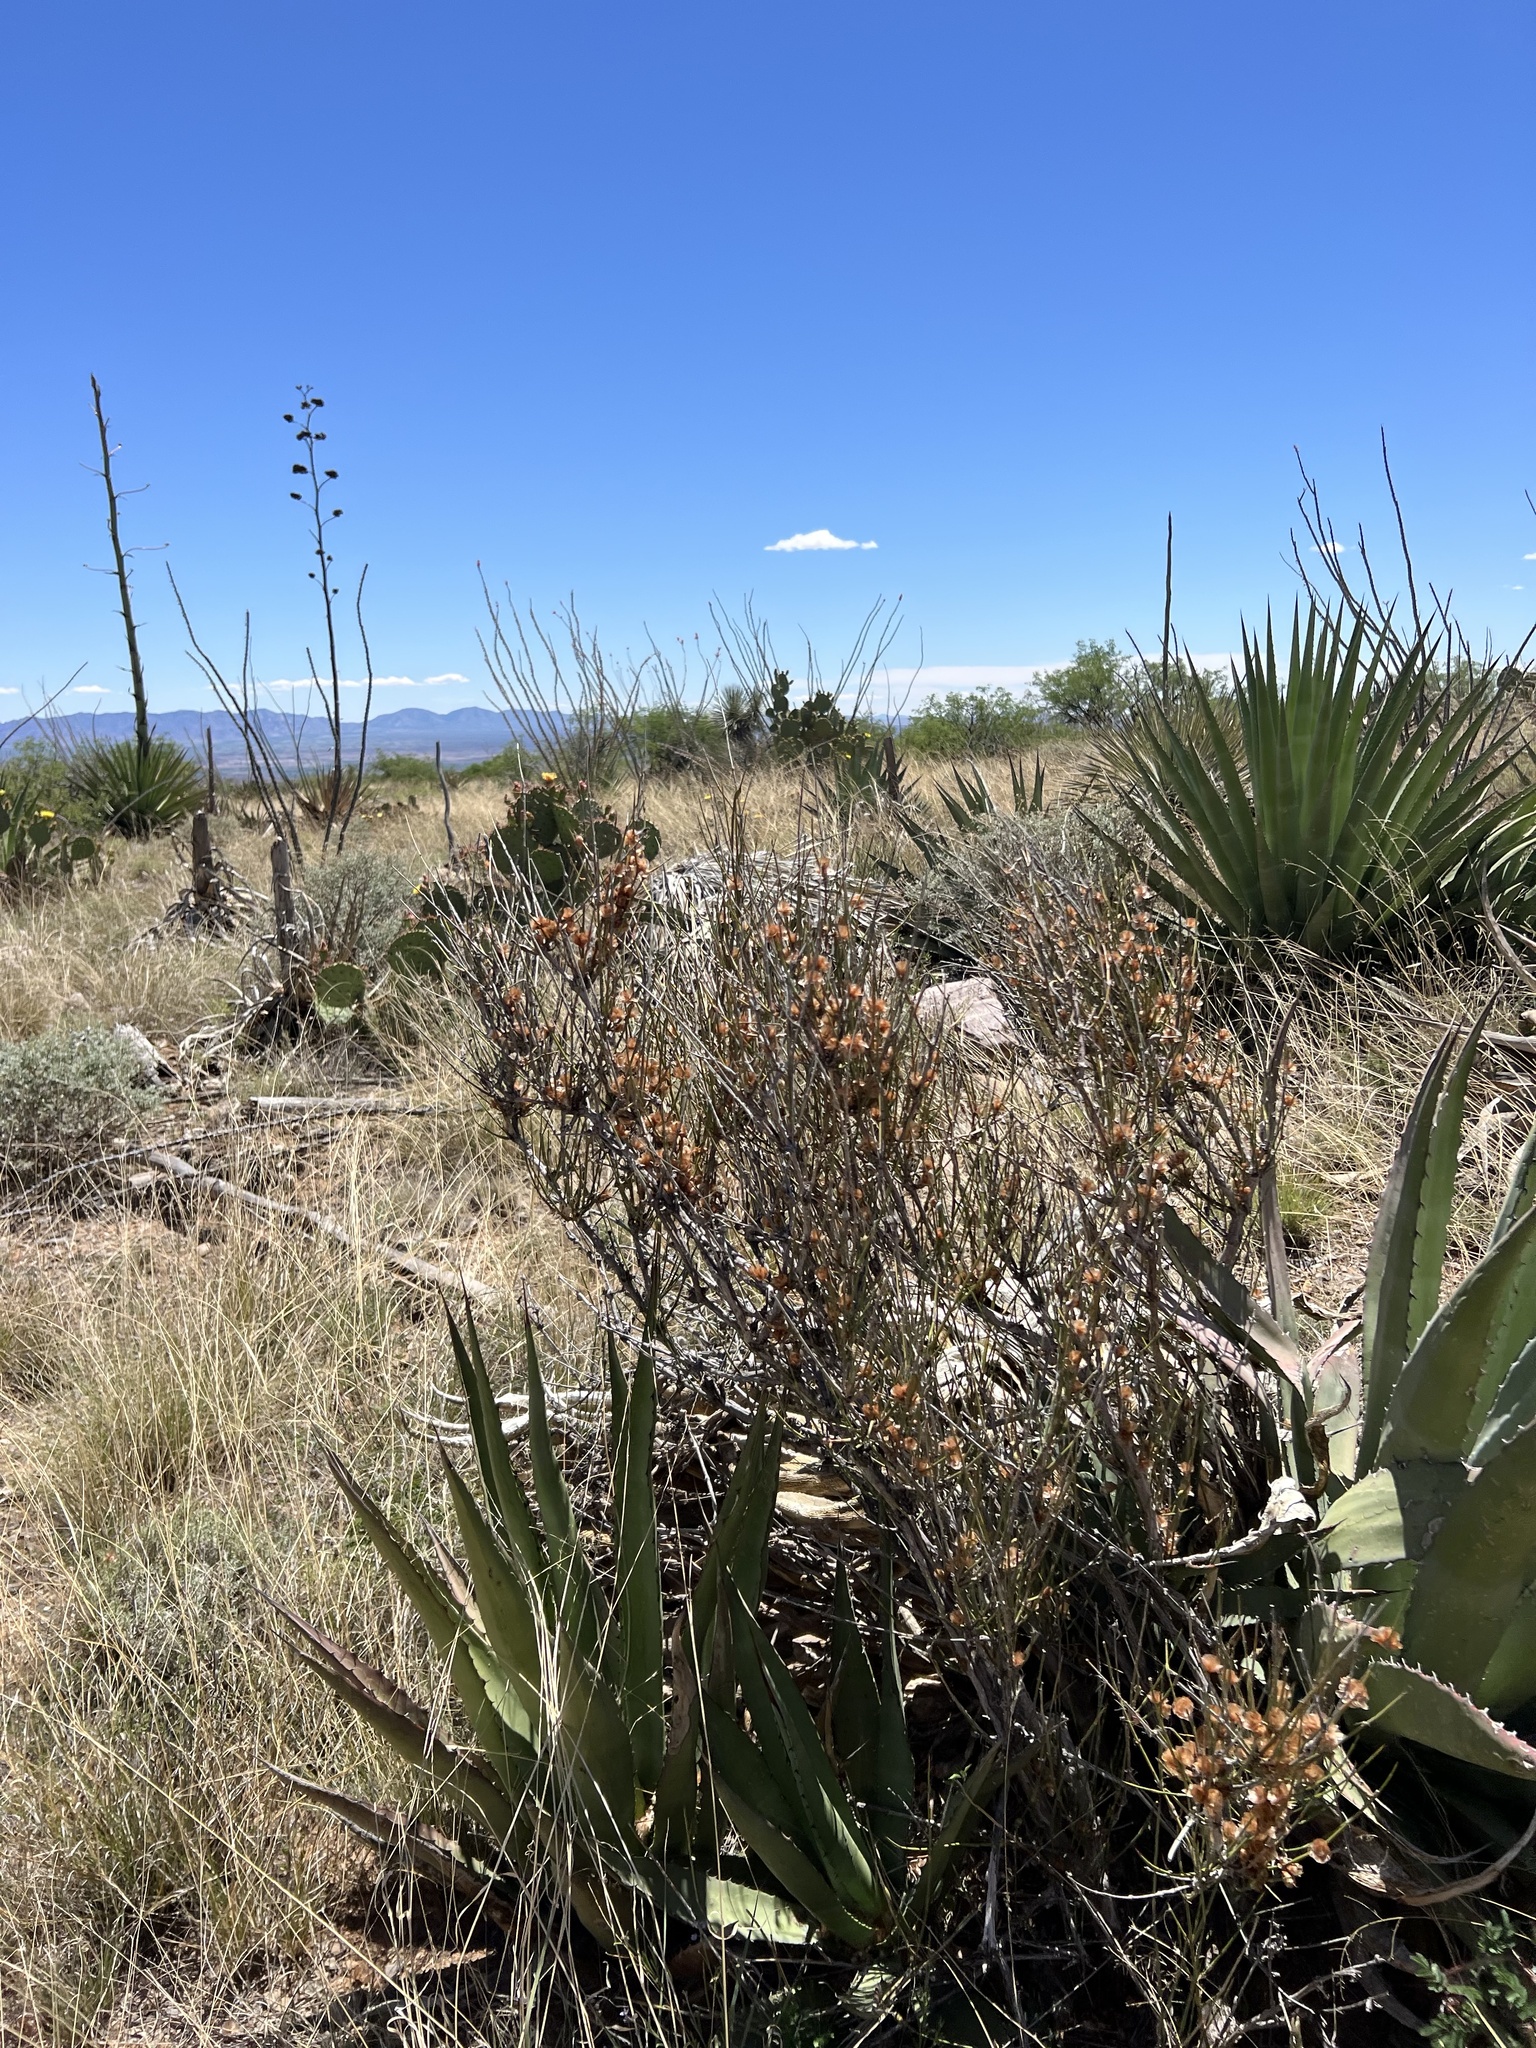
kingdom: Plantae
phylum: Tracheophyta
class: Gnetopsida
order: Ephedrales
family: Ephedraceae
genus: Ephedra
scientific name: Ephedra trifurca
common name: Mexican-tea
